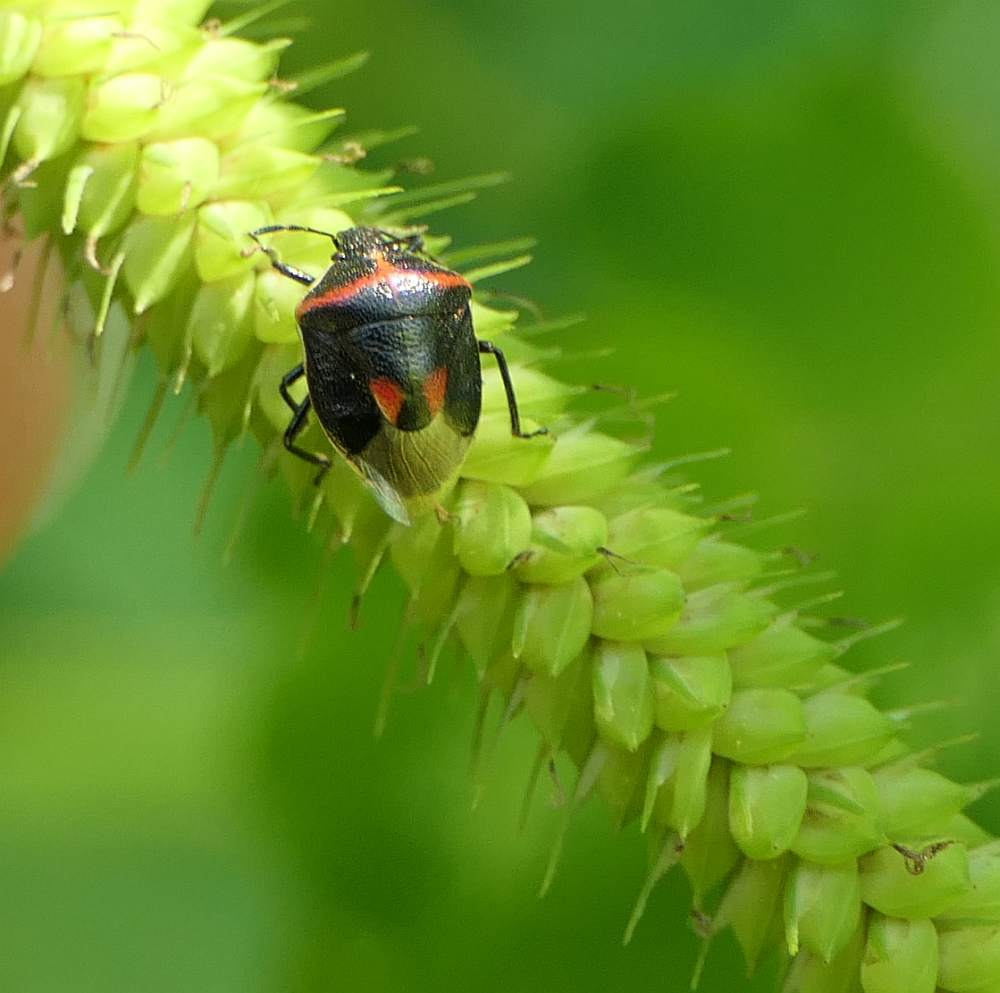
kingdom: Animalia
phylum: Arthropoda
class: Insecta
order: Hemiptera
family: Pentatomidae
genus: Cosmopepla
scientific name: Cosmopepla lintneriana
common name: Twice-stabbed stink bug
